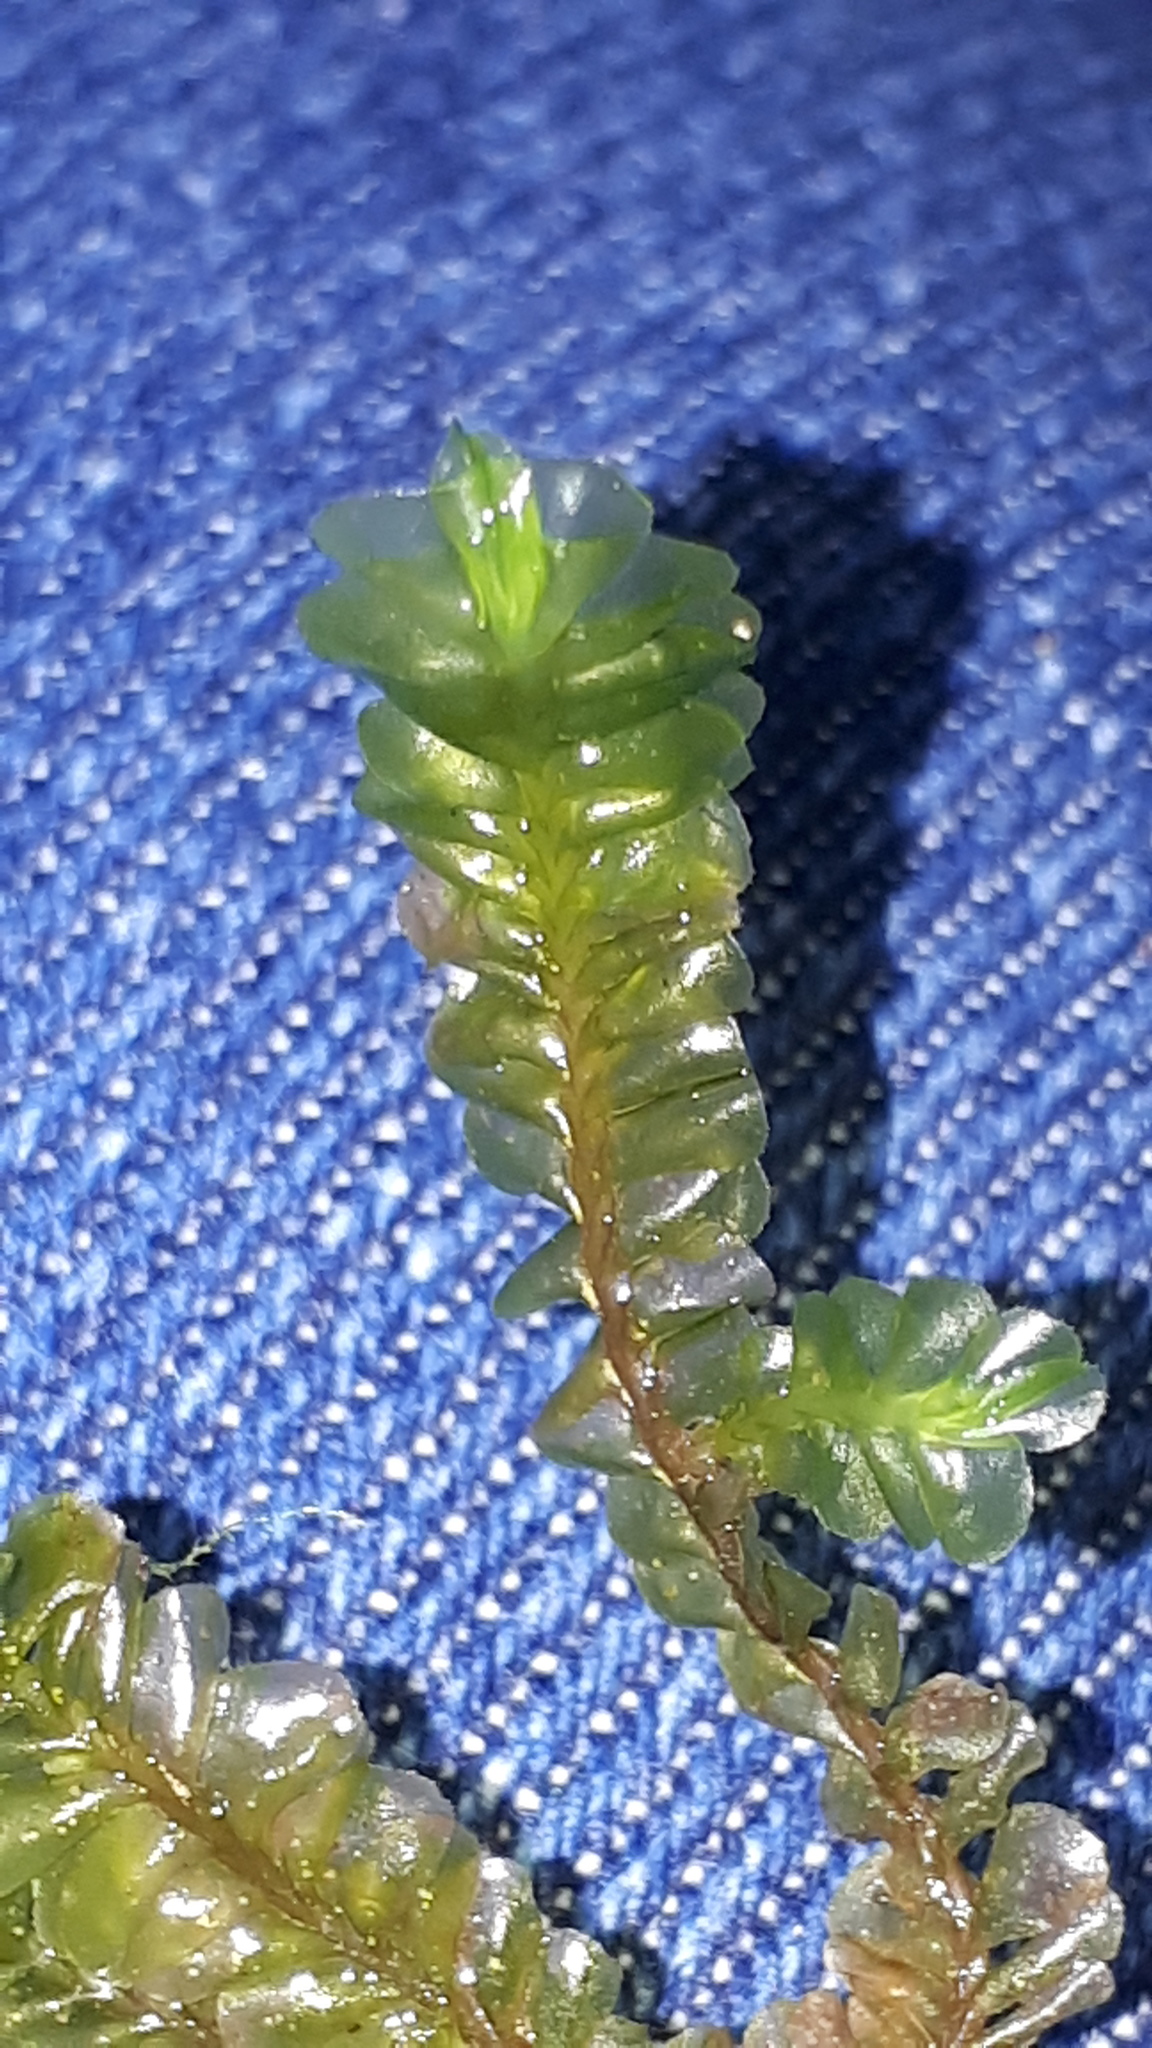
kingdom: Plantae
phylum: Marchantiophyta
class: Jungermanniopsida
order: Jungermanniales
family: Plagiochilaceae
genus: Plagiochila
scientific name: Plagiochila asplenioides
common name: Greater featherwort
